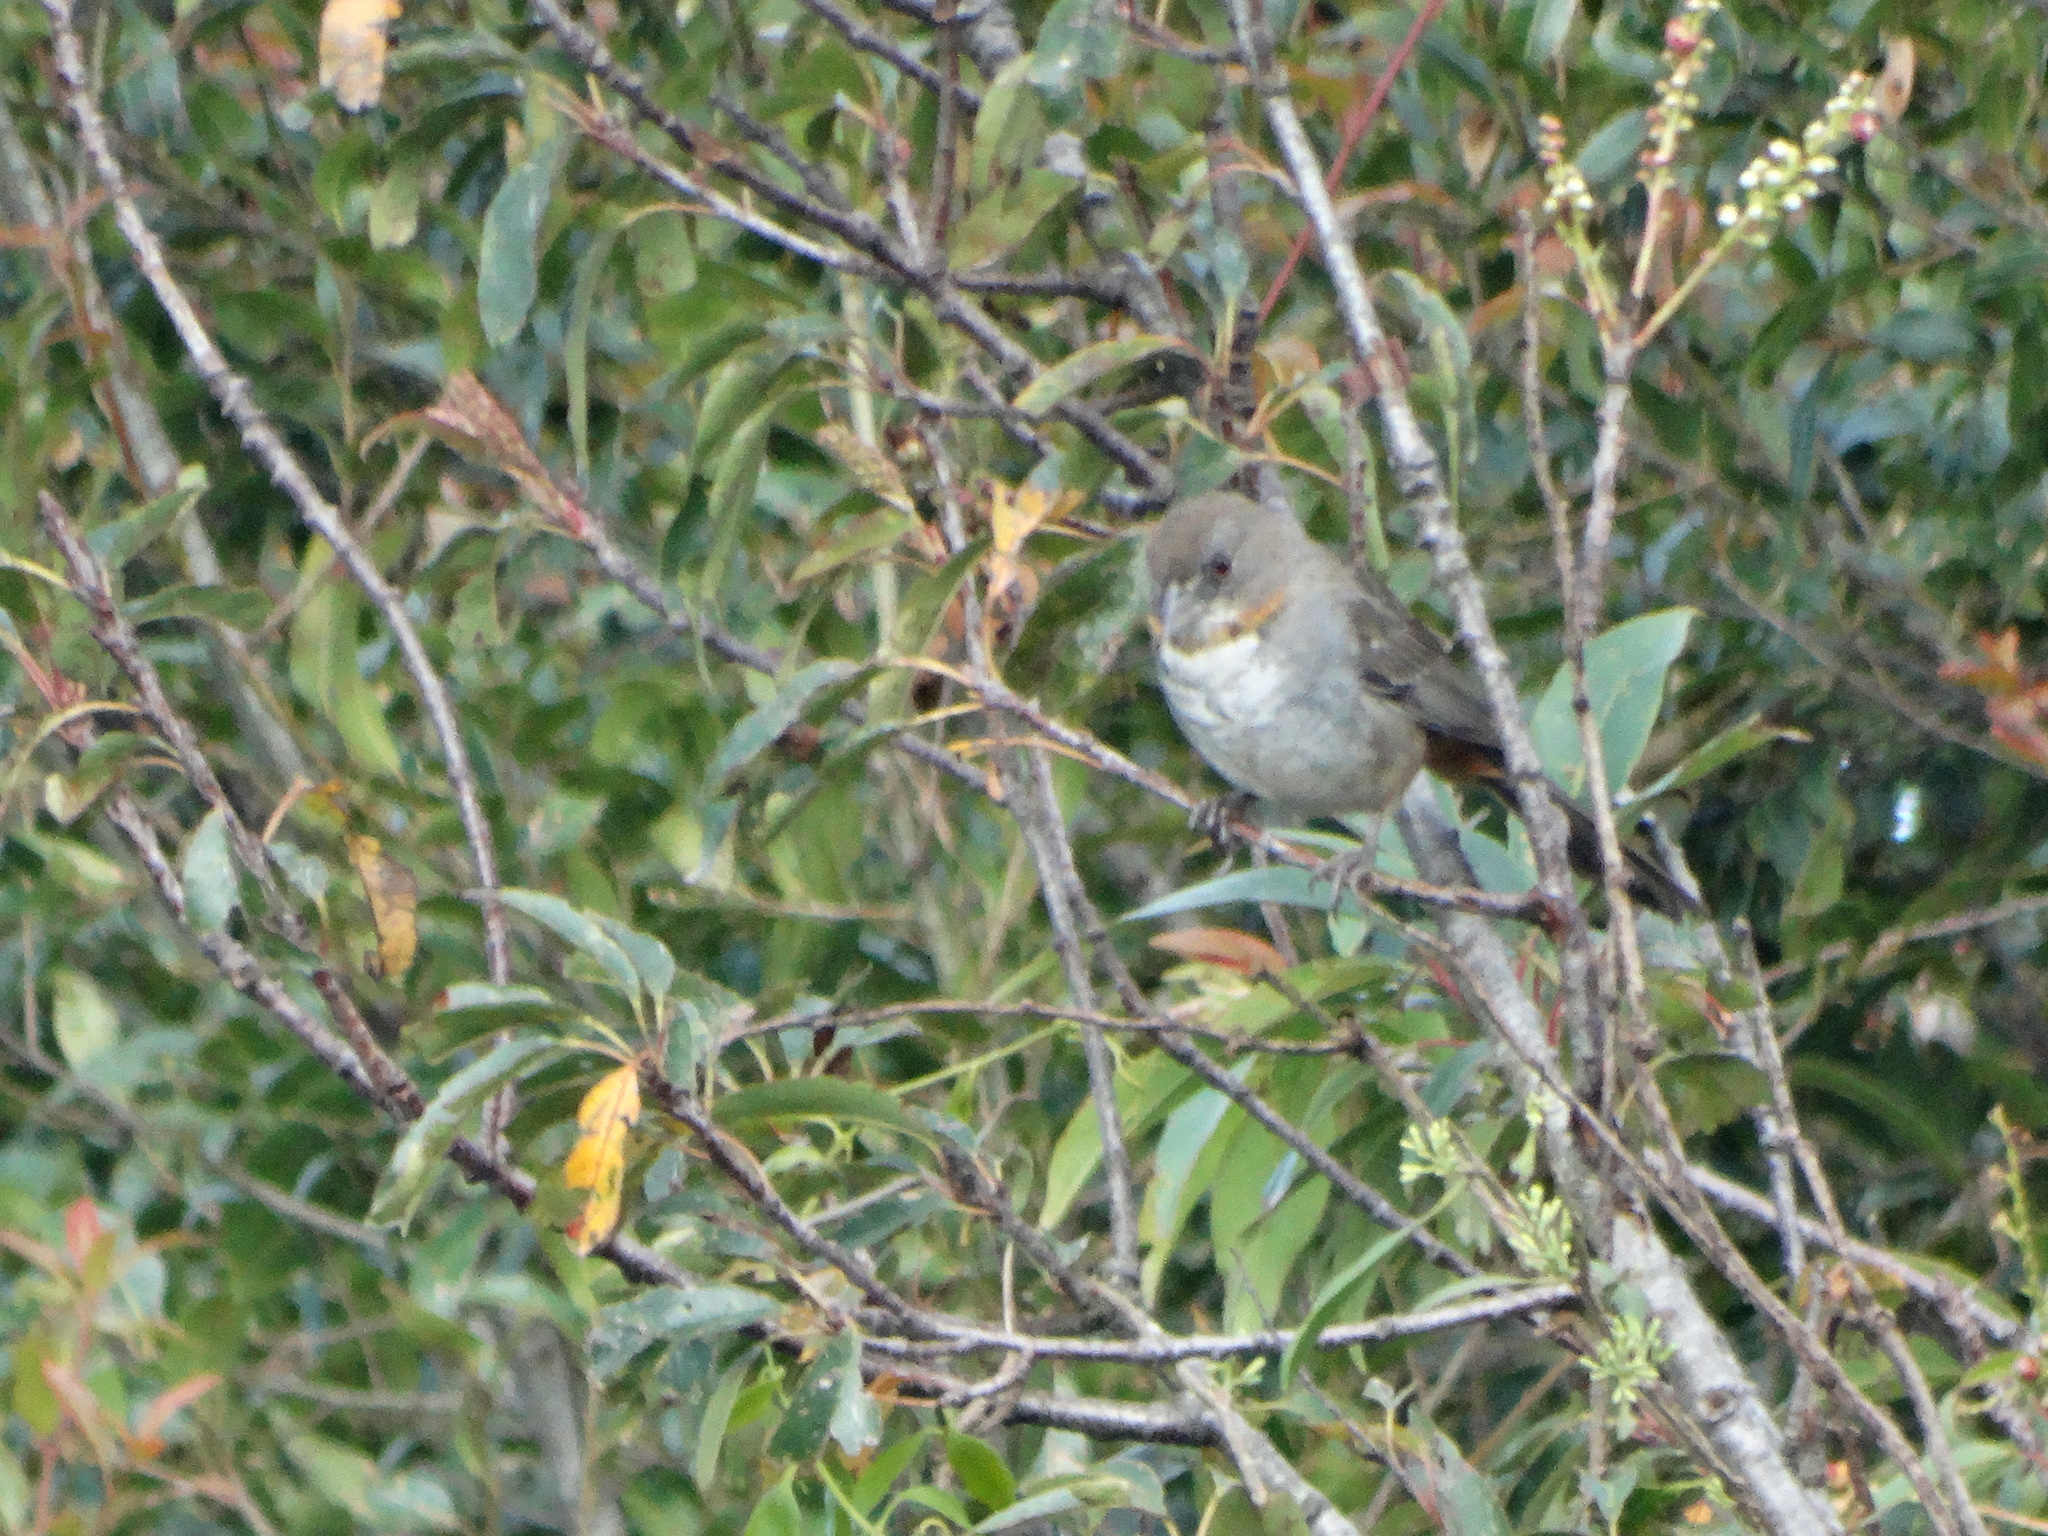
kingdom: Animalia
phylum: Chordata
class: Aves
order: Passeriformes
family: Passerellidae
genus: Melozone
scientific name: Melozone albicollis
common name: White-throated towhee
